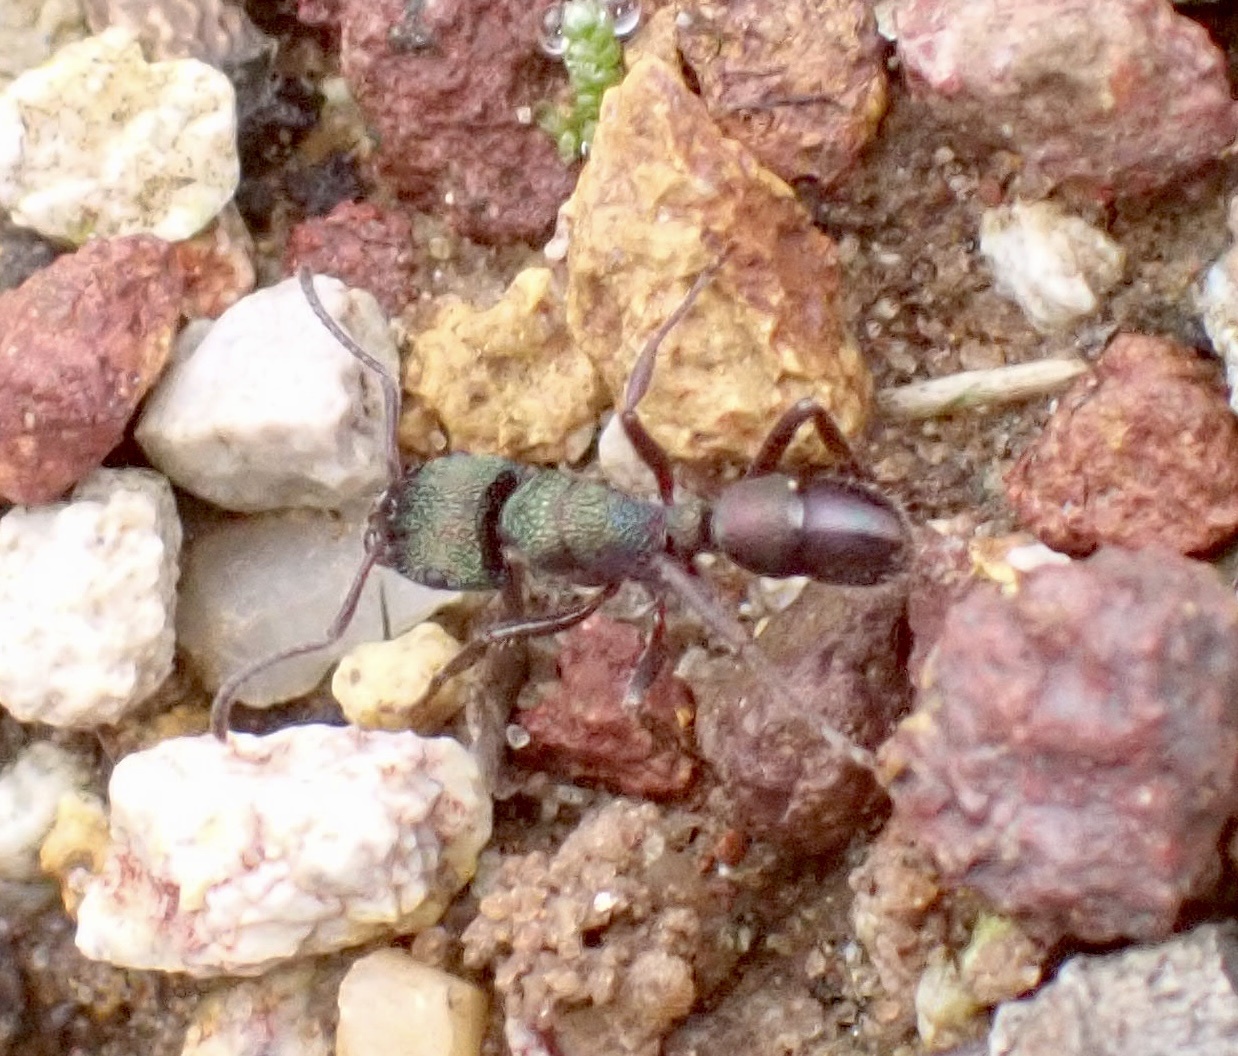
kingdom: Animalia
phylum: Arthropoda
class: Insecta
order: Hymenoptera
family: Formicidae
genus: Rhytidoponera
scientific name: Rhytidoponera metallica
